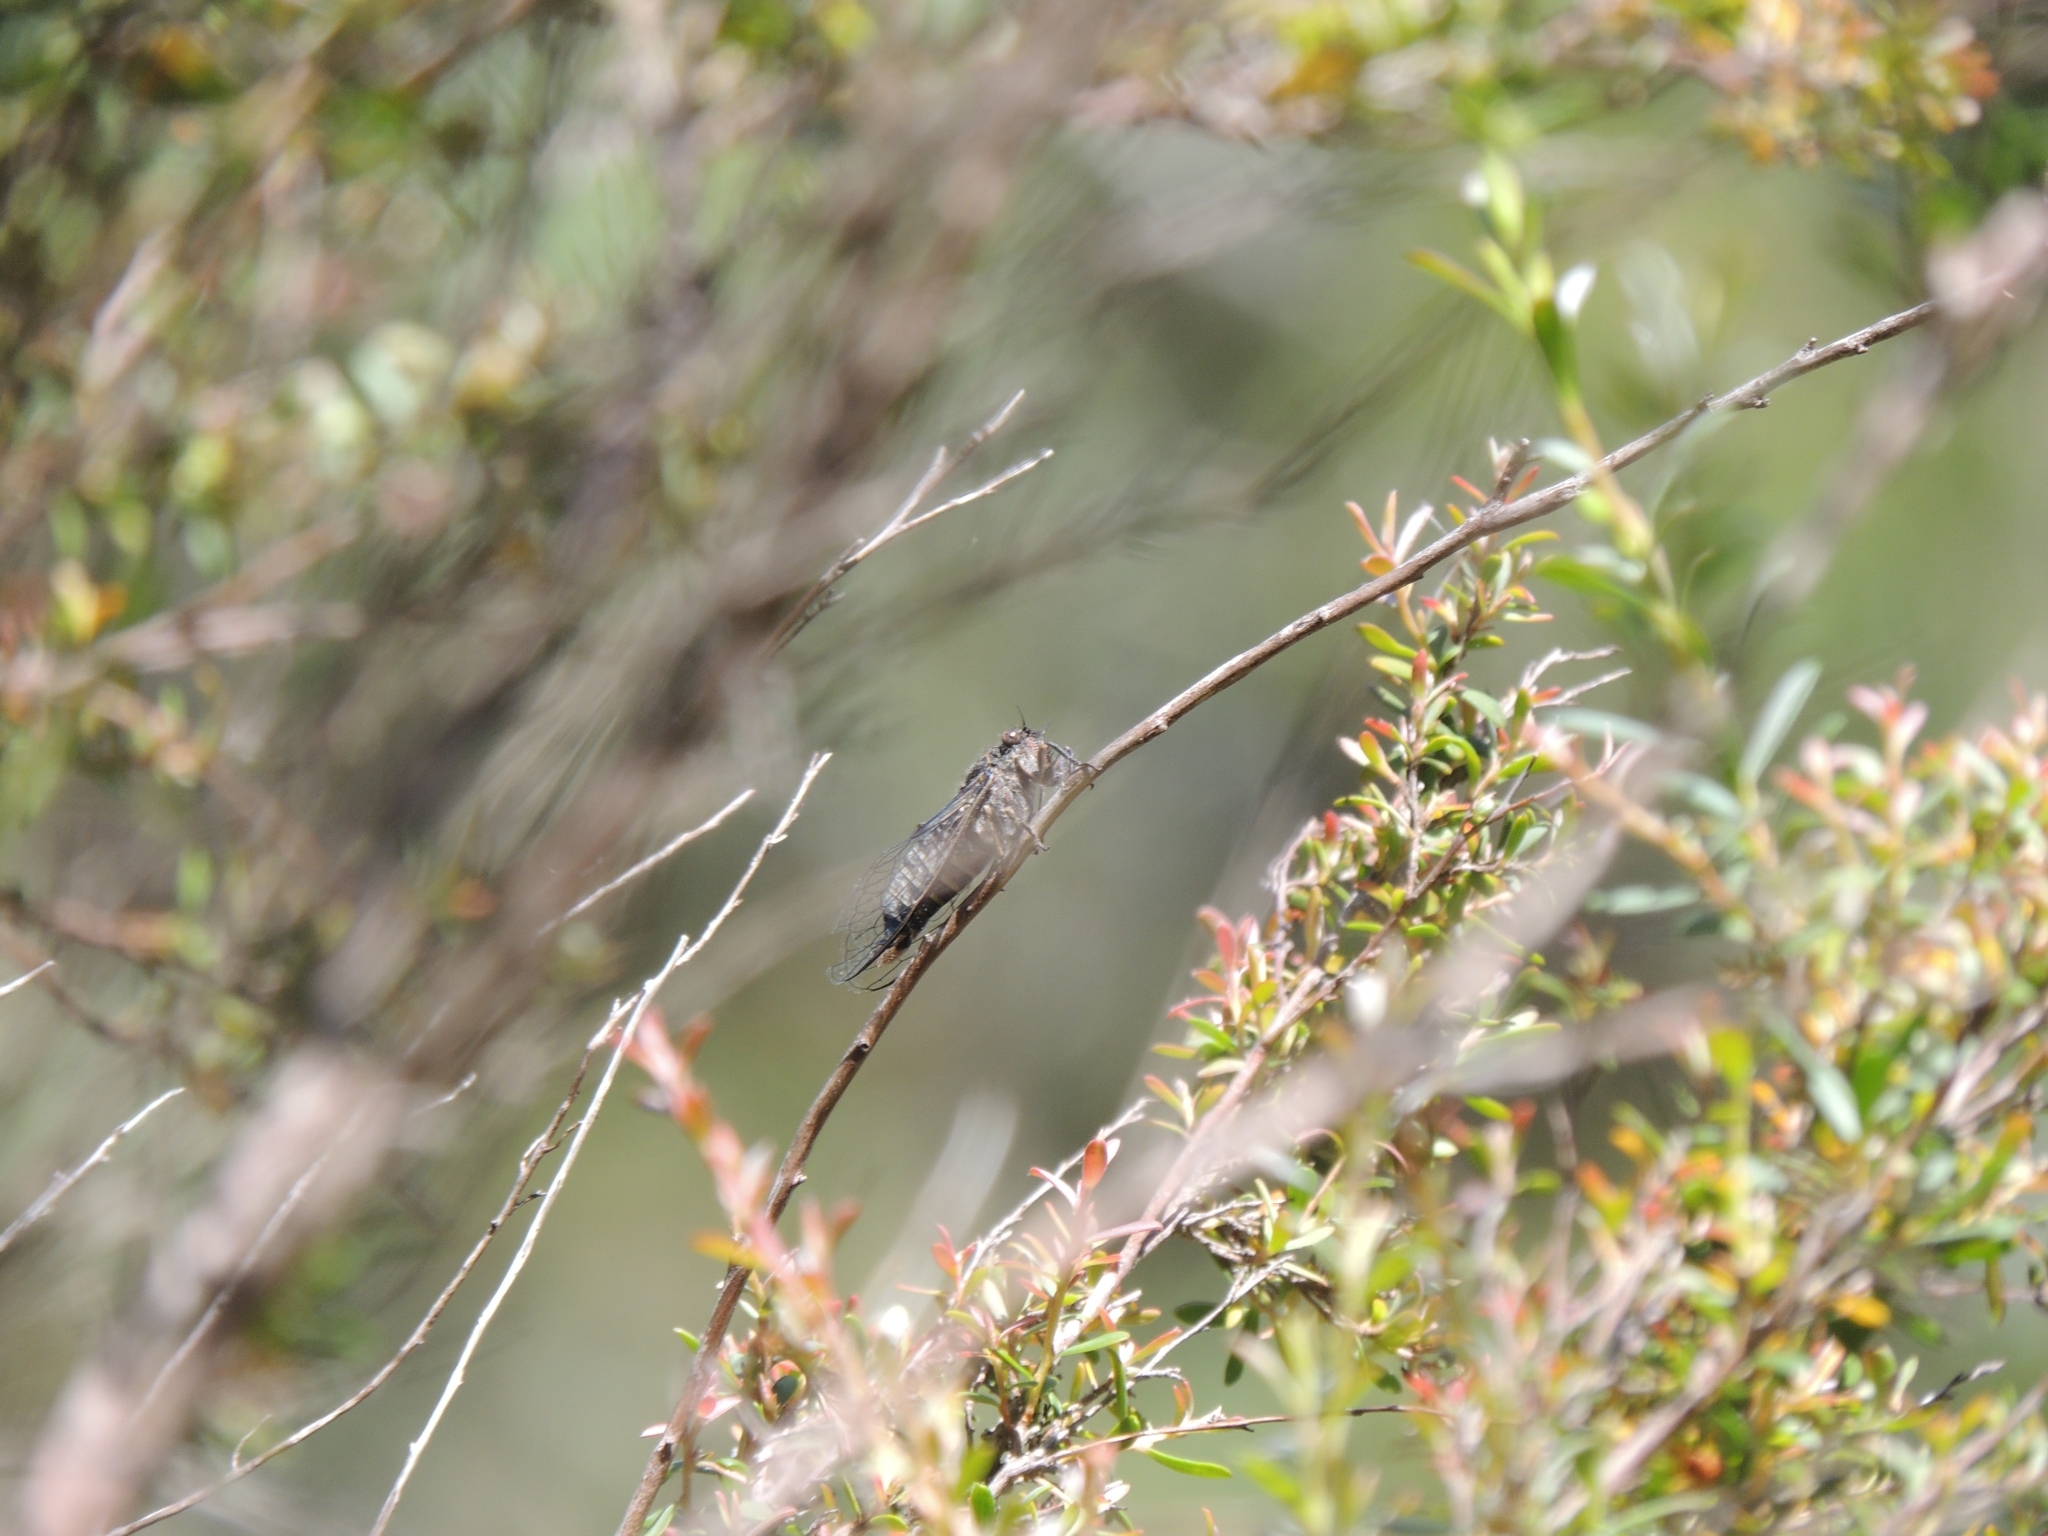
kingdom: Animalia
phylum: Arthropoda
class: Insecta
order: Hemiptera
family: Cicadidae
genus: Atrapsalta
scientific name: Atrapsalta collina
